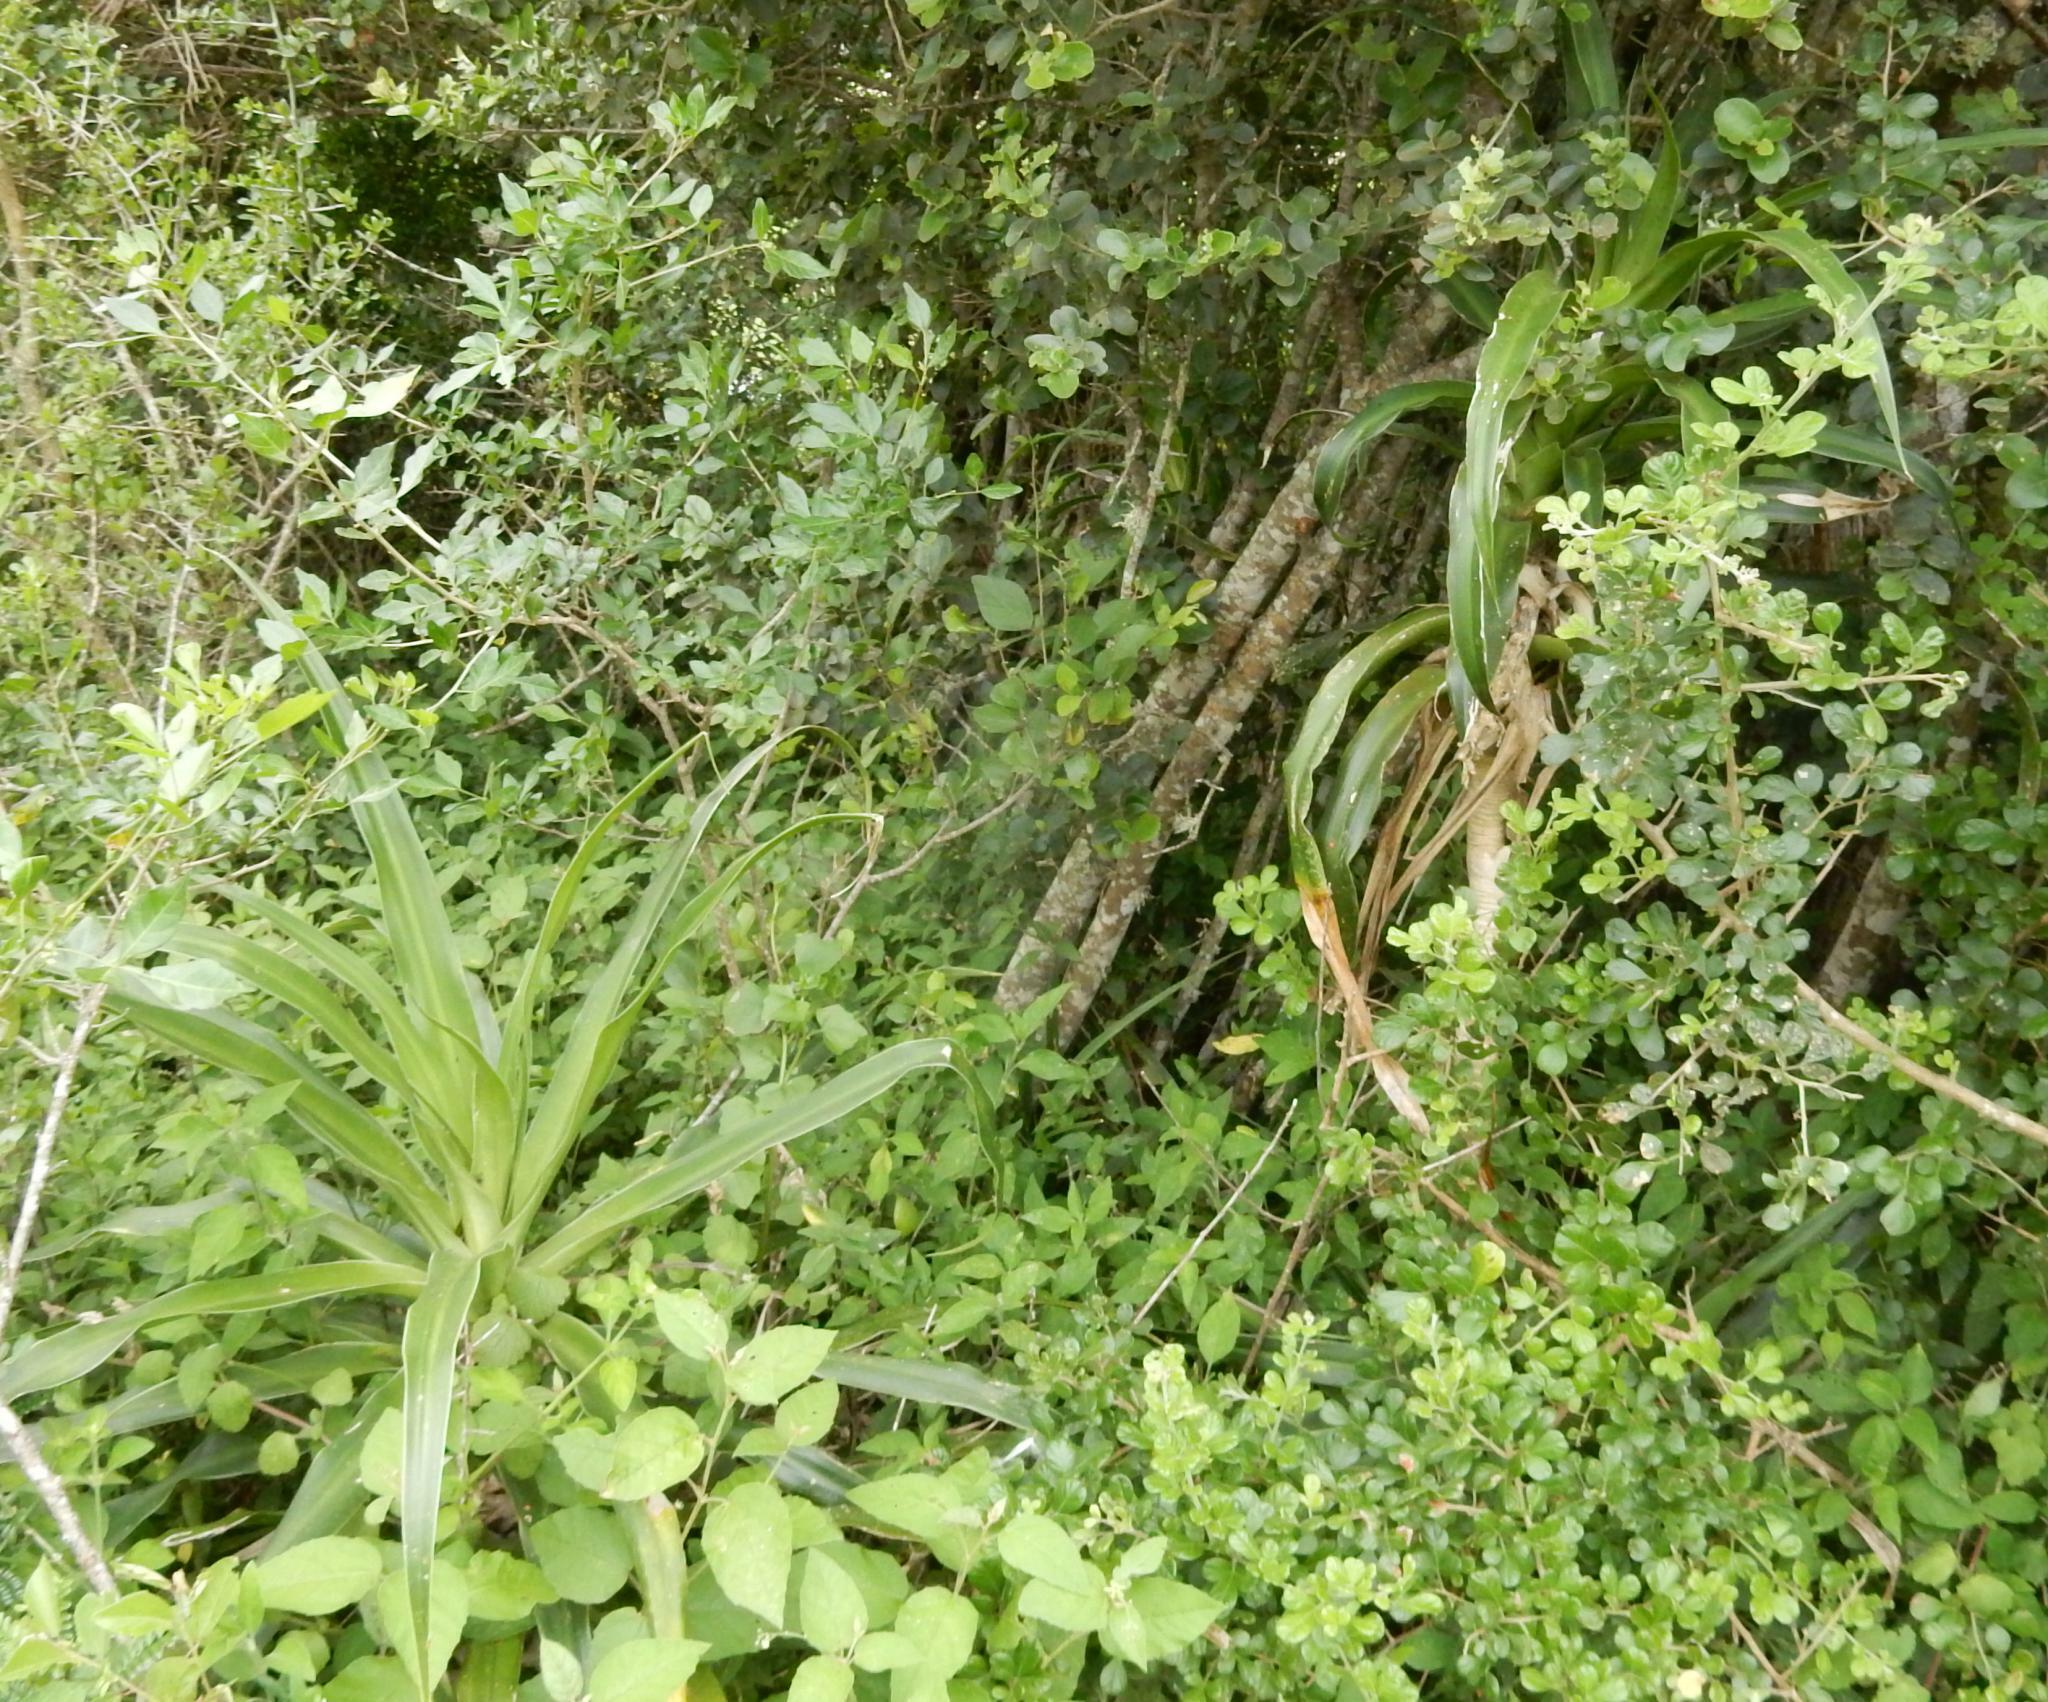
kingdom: Plantae
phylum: Tracheophyta
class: Liliopsida
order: Asparagales
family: Asparagaceae
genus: Dracaena
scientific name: Dracaena aletriformis
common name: Large-leaved dragon tree
